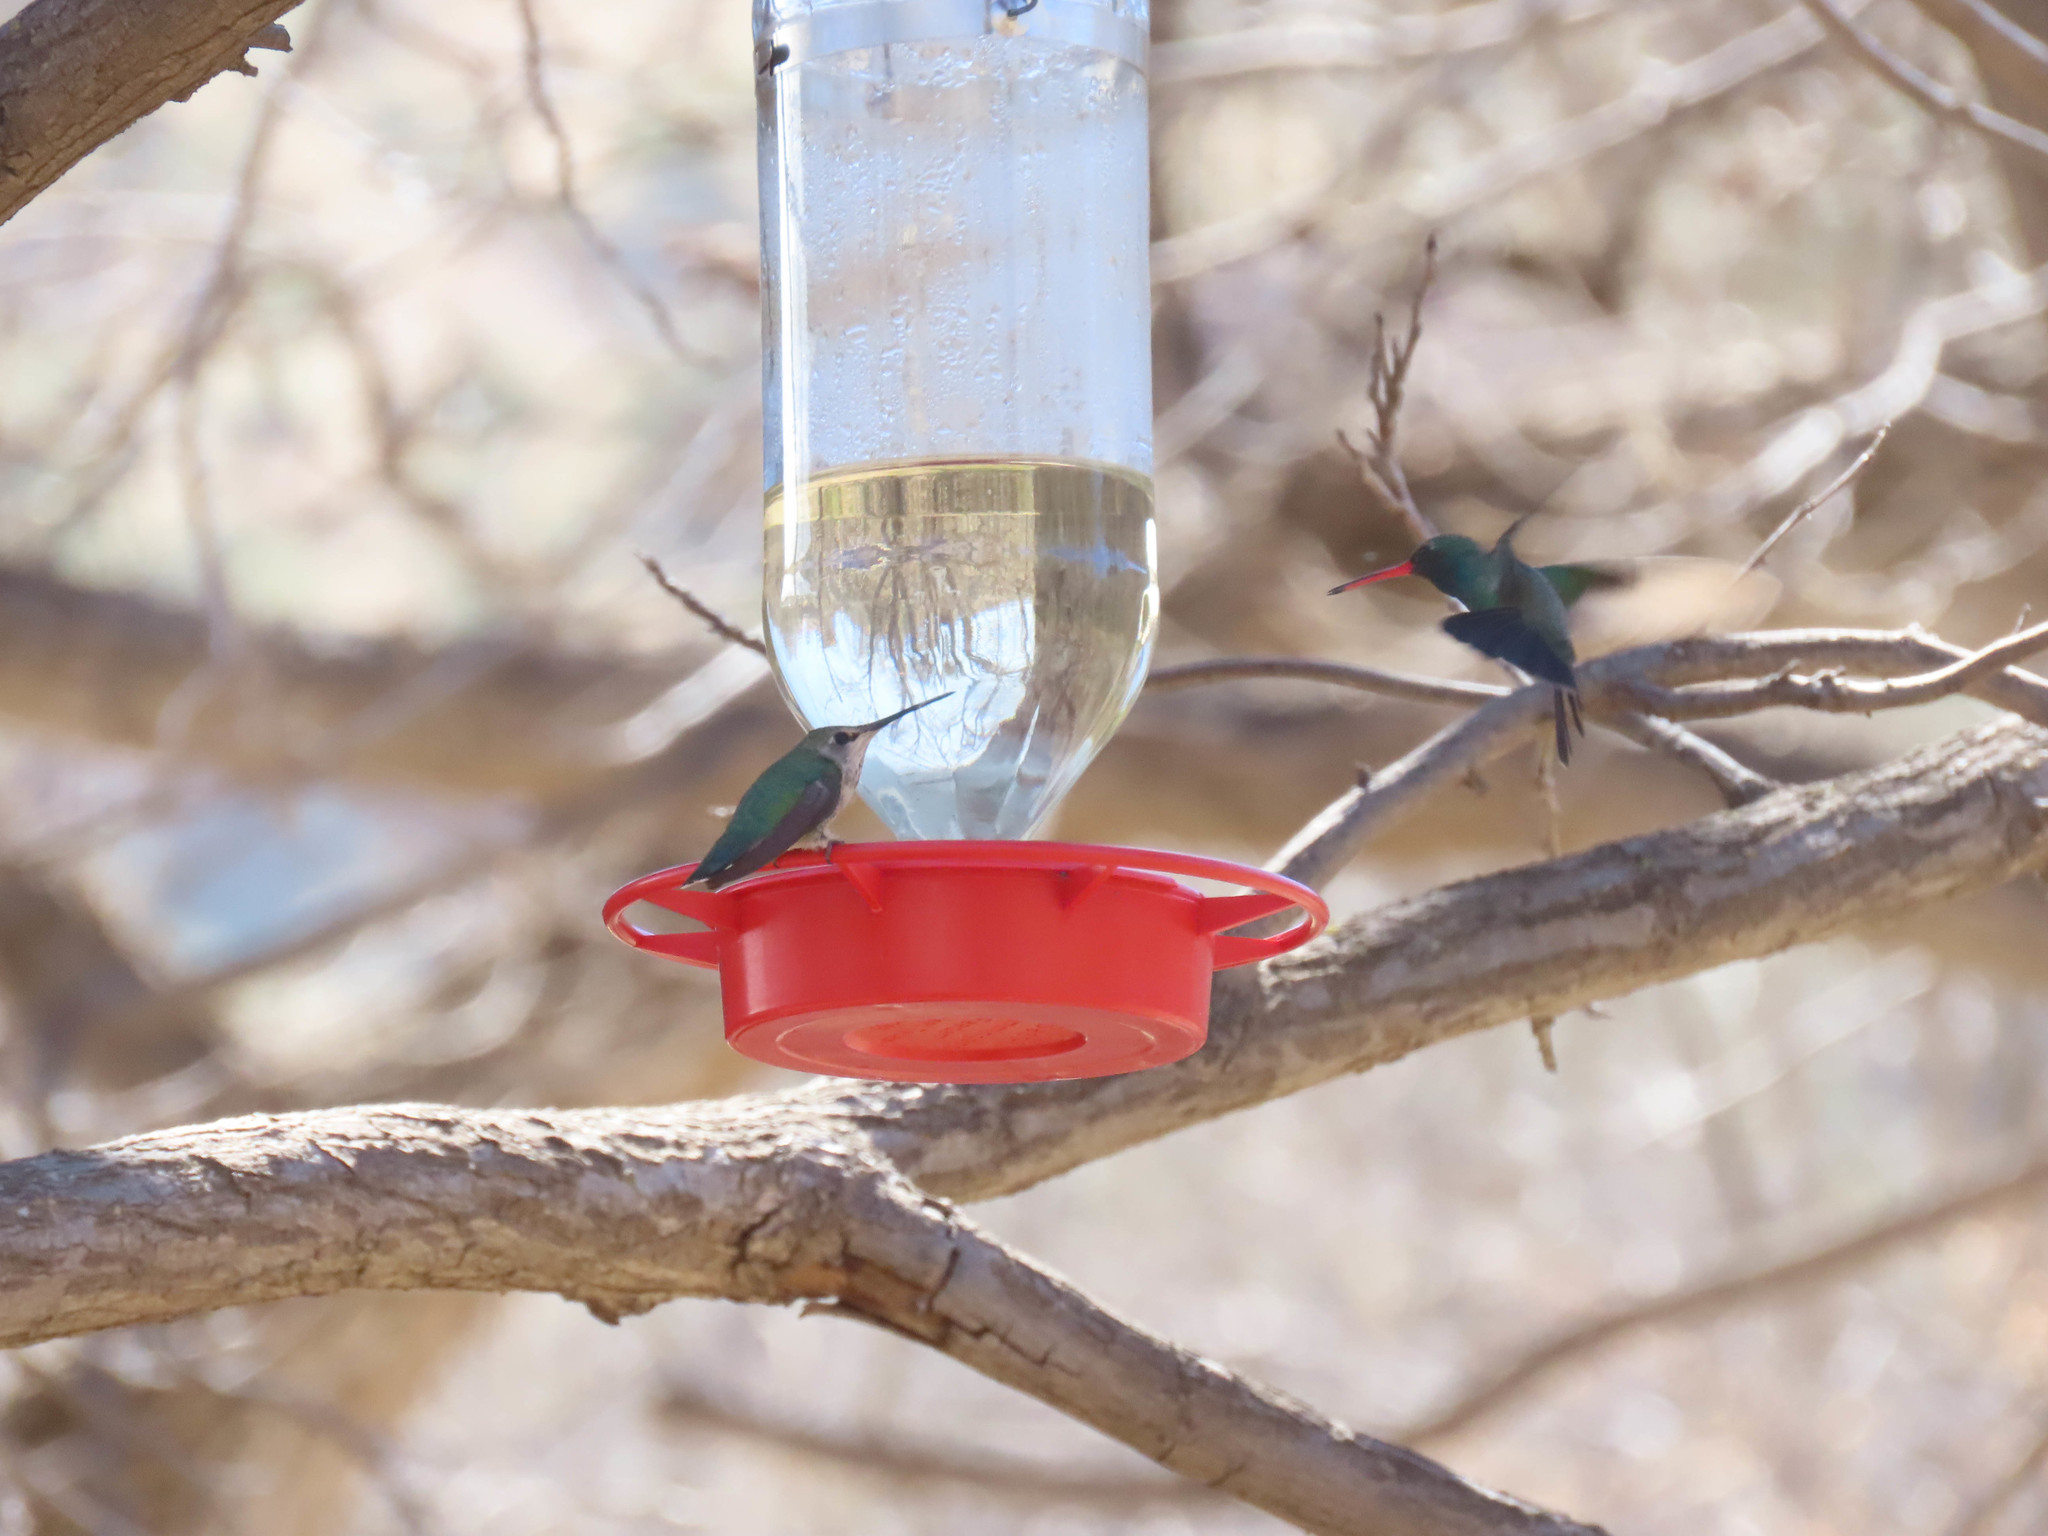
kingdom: Animalia
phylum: Chordata
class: Aves
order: Apodiformes
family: Trochilidae
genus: Calypte
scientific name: Calypte anna
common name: Anna's hummingbird
